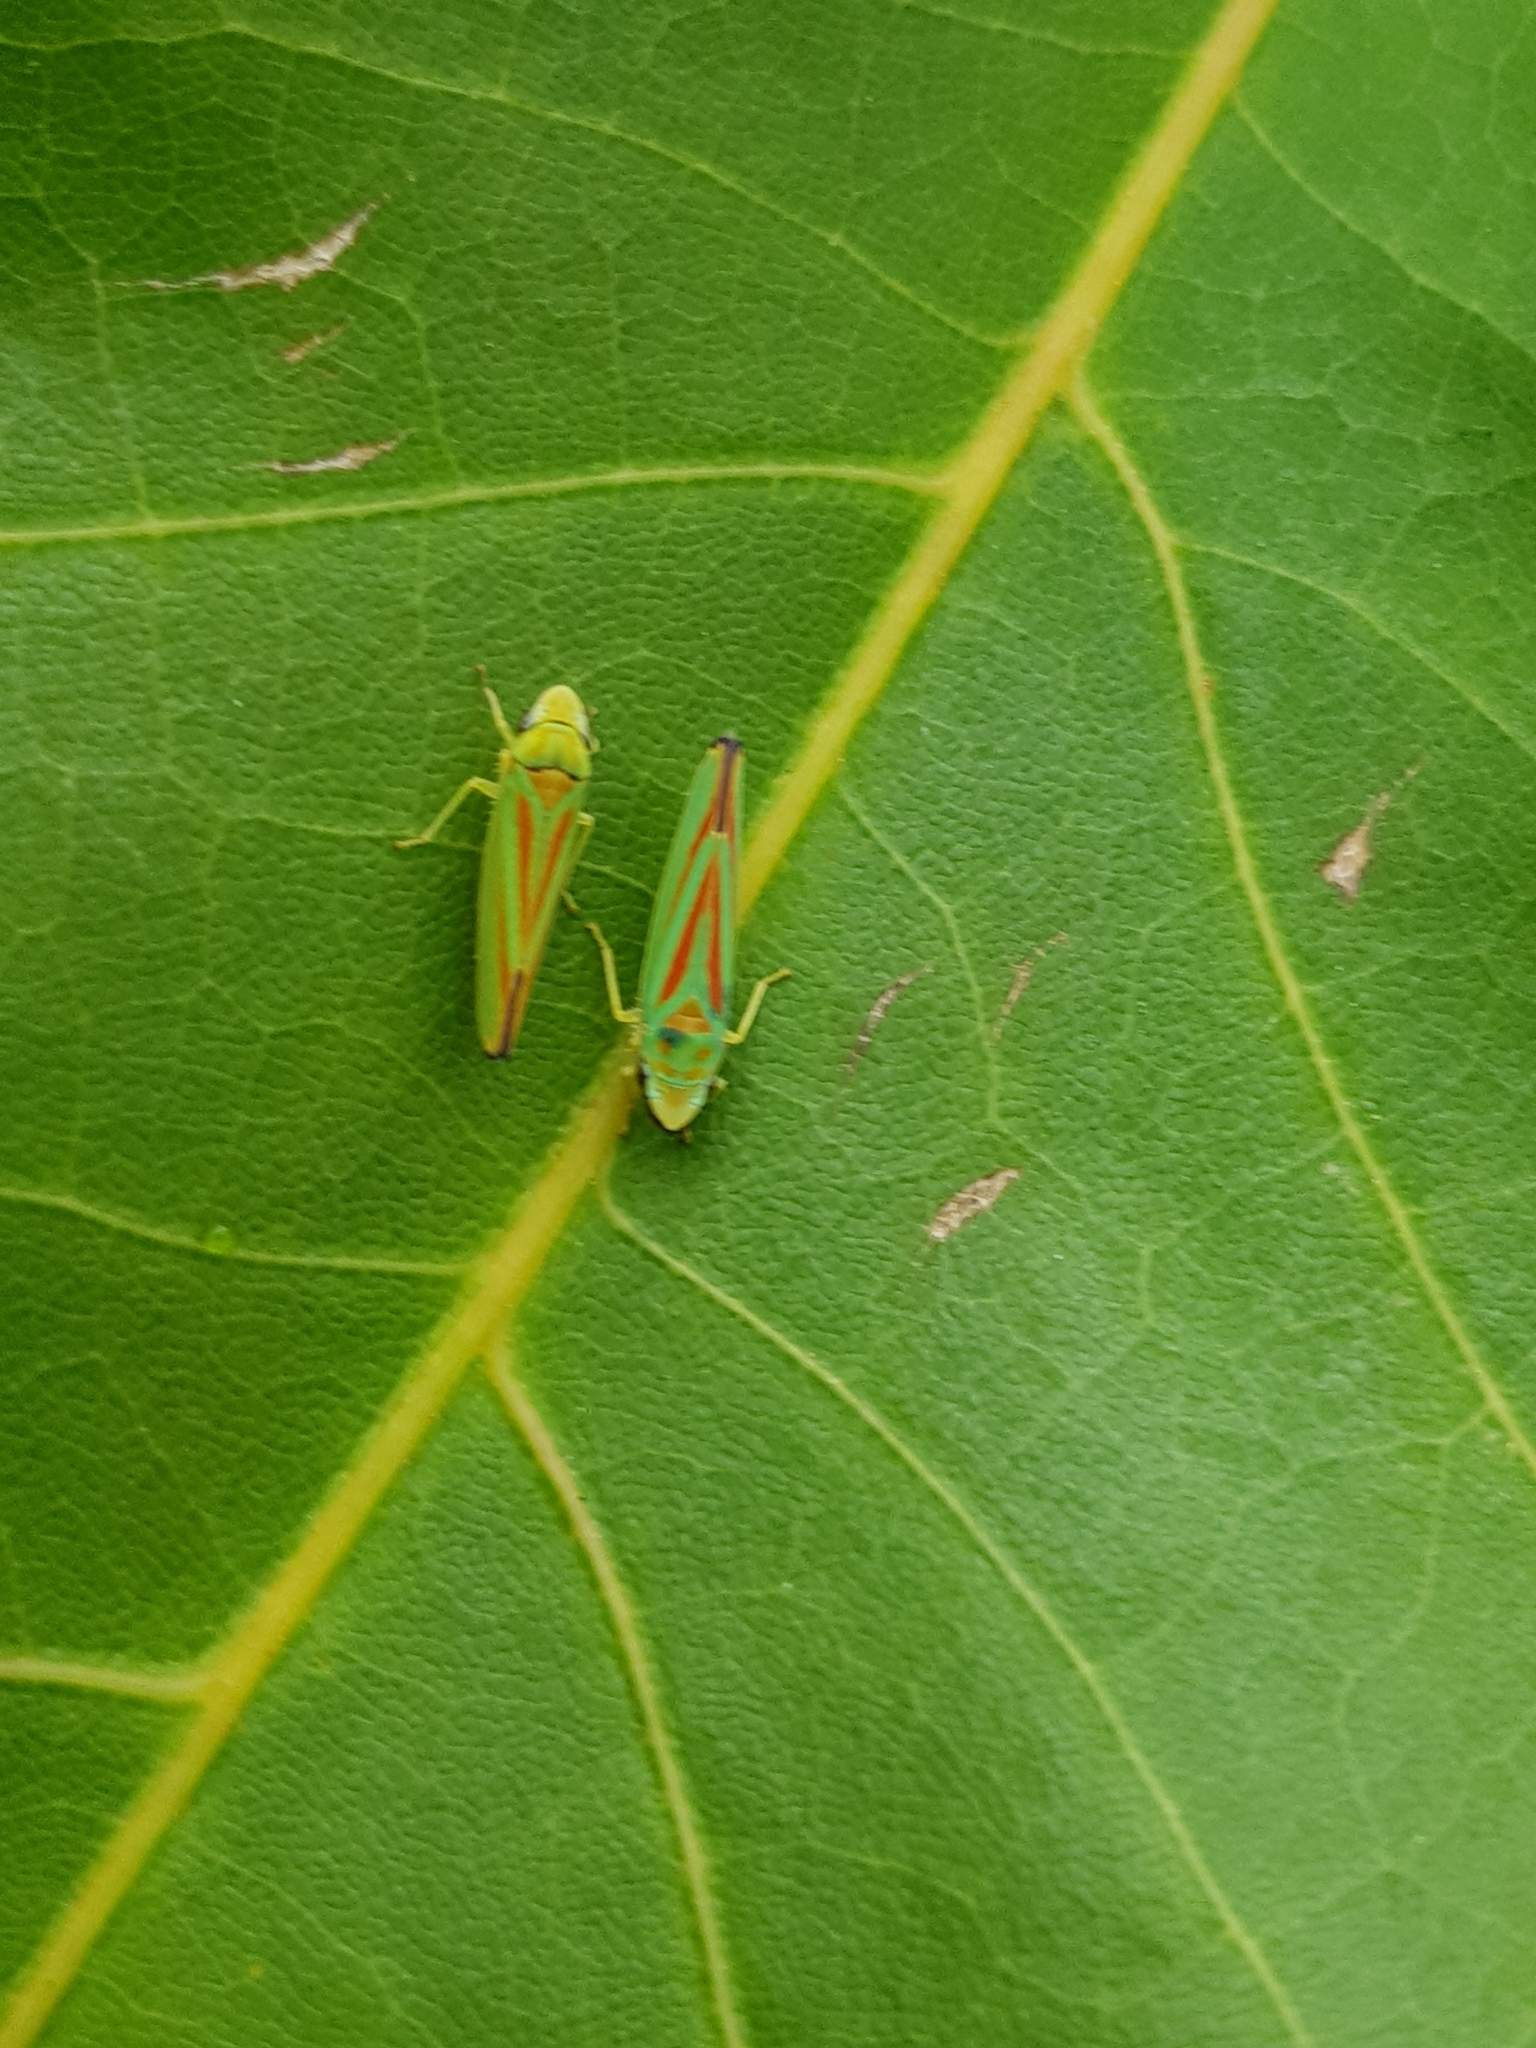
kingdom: Animalia
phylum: Arthropoda
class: Insecta
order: Hemiptera
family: Cicadellidae
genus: Graphocephala
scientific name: Graphocephala fennahi
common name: Rhododendron leafhopper
